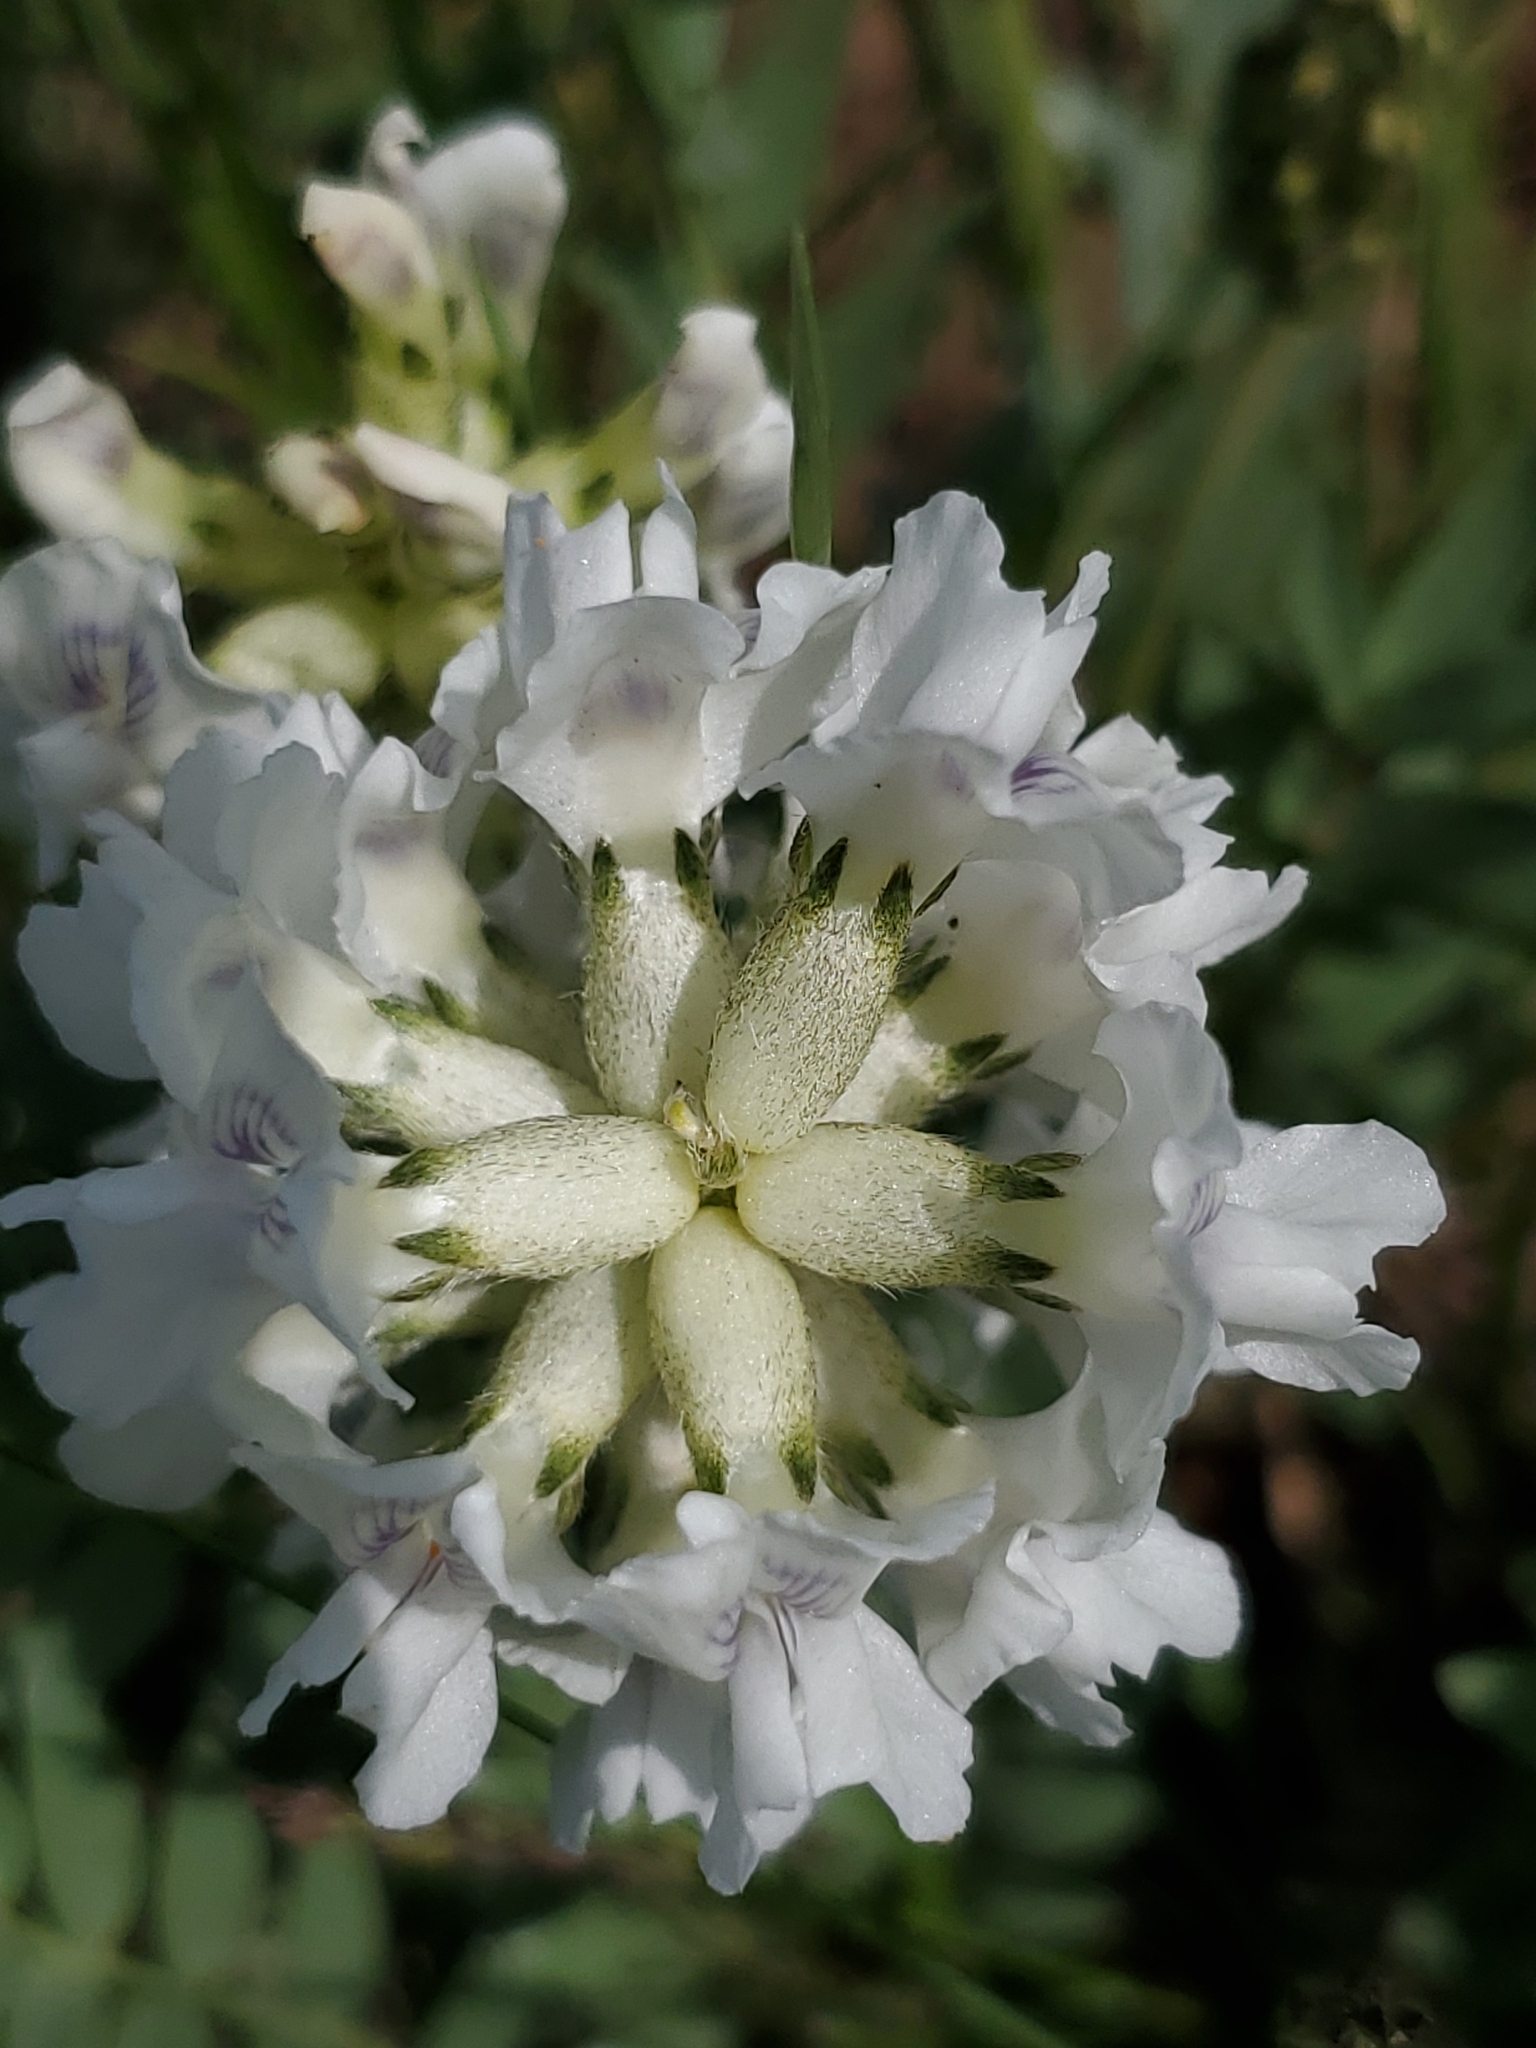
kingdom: Plantae
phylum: Tracheophyta
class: Magnoliopsida
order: Fabales
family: Fabaceae
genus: Oxytropis
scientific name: Oxytropis sericea
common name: Silky locoweed
